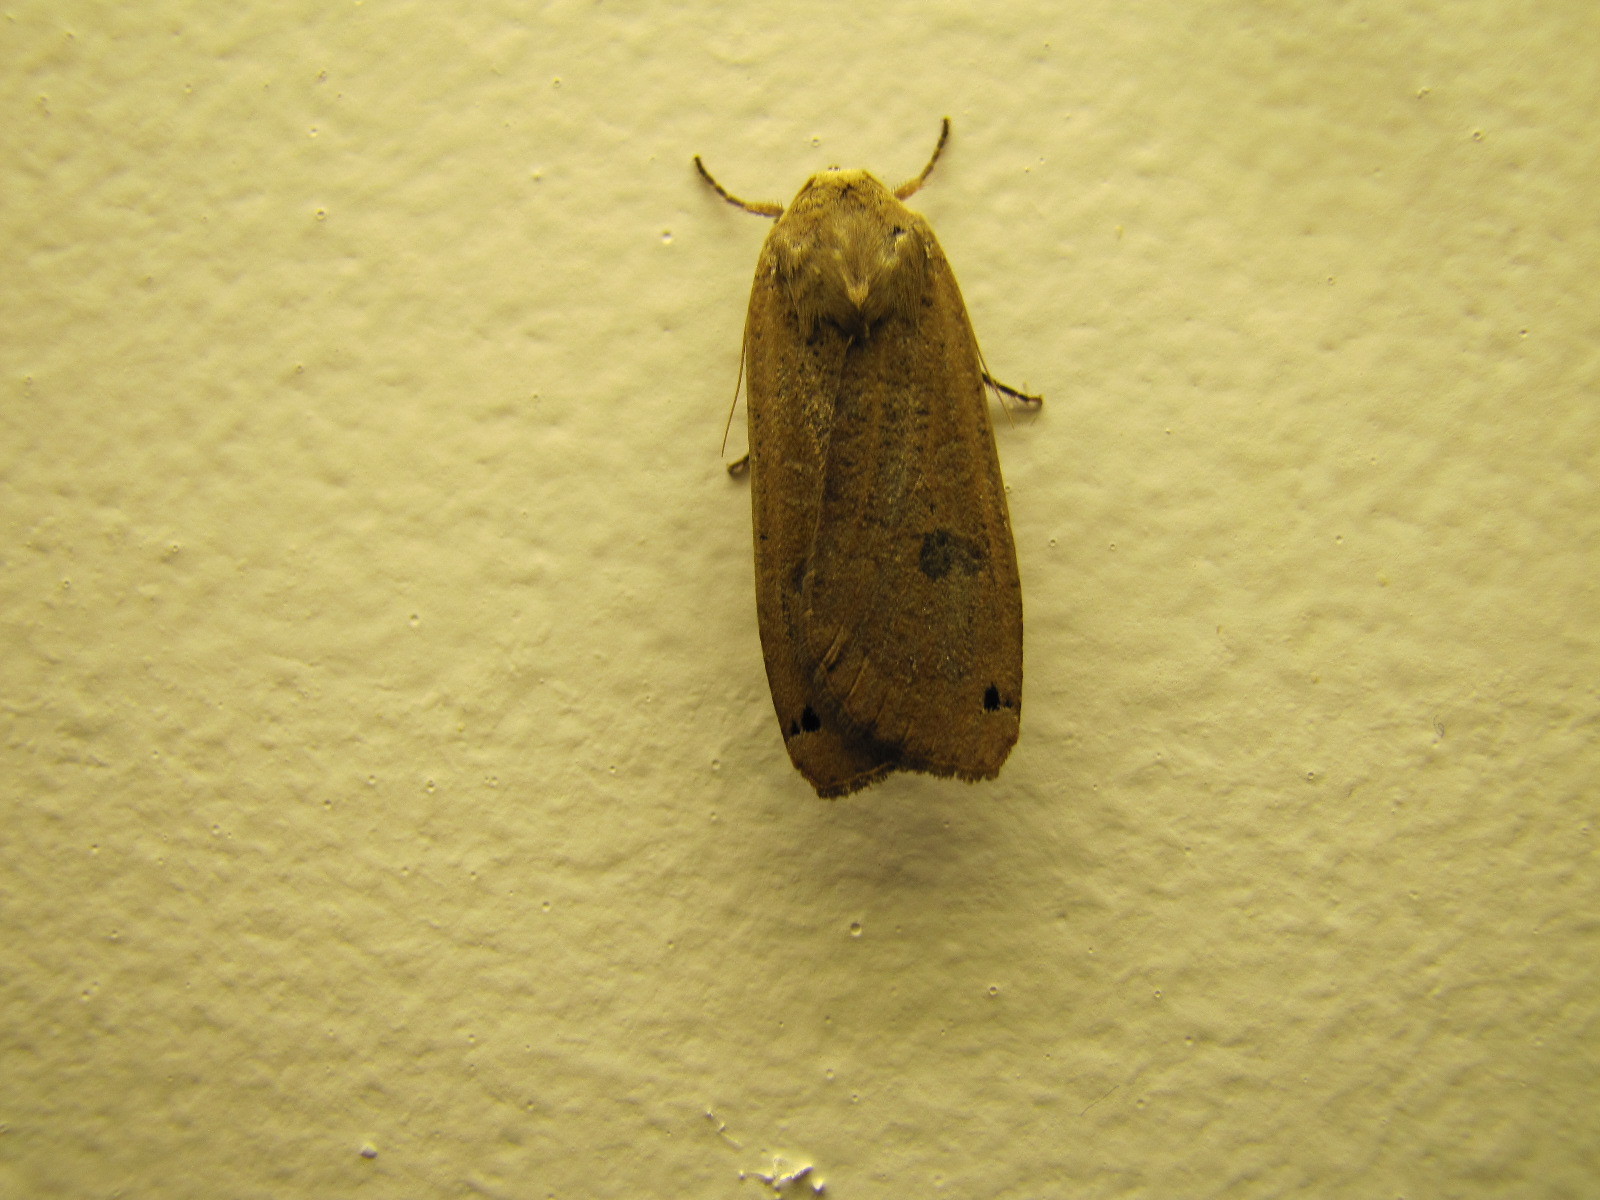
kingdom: Animalia
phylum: Arthropoda
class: Insecta
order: Lepidoptera
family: Noctuidae
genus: Noctua
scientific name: Noctua pronuba
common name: Large yellow underwing
